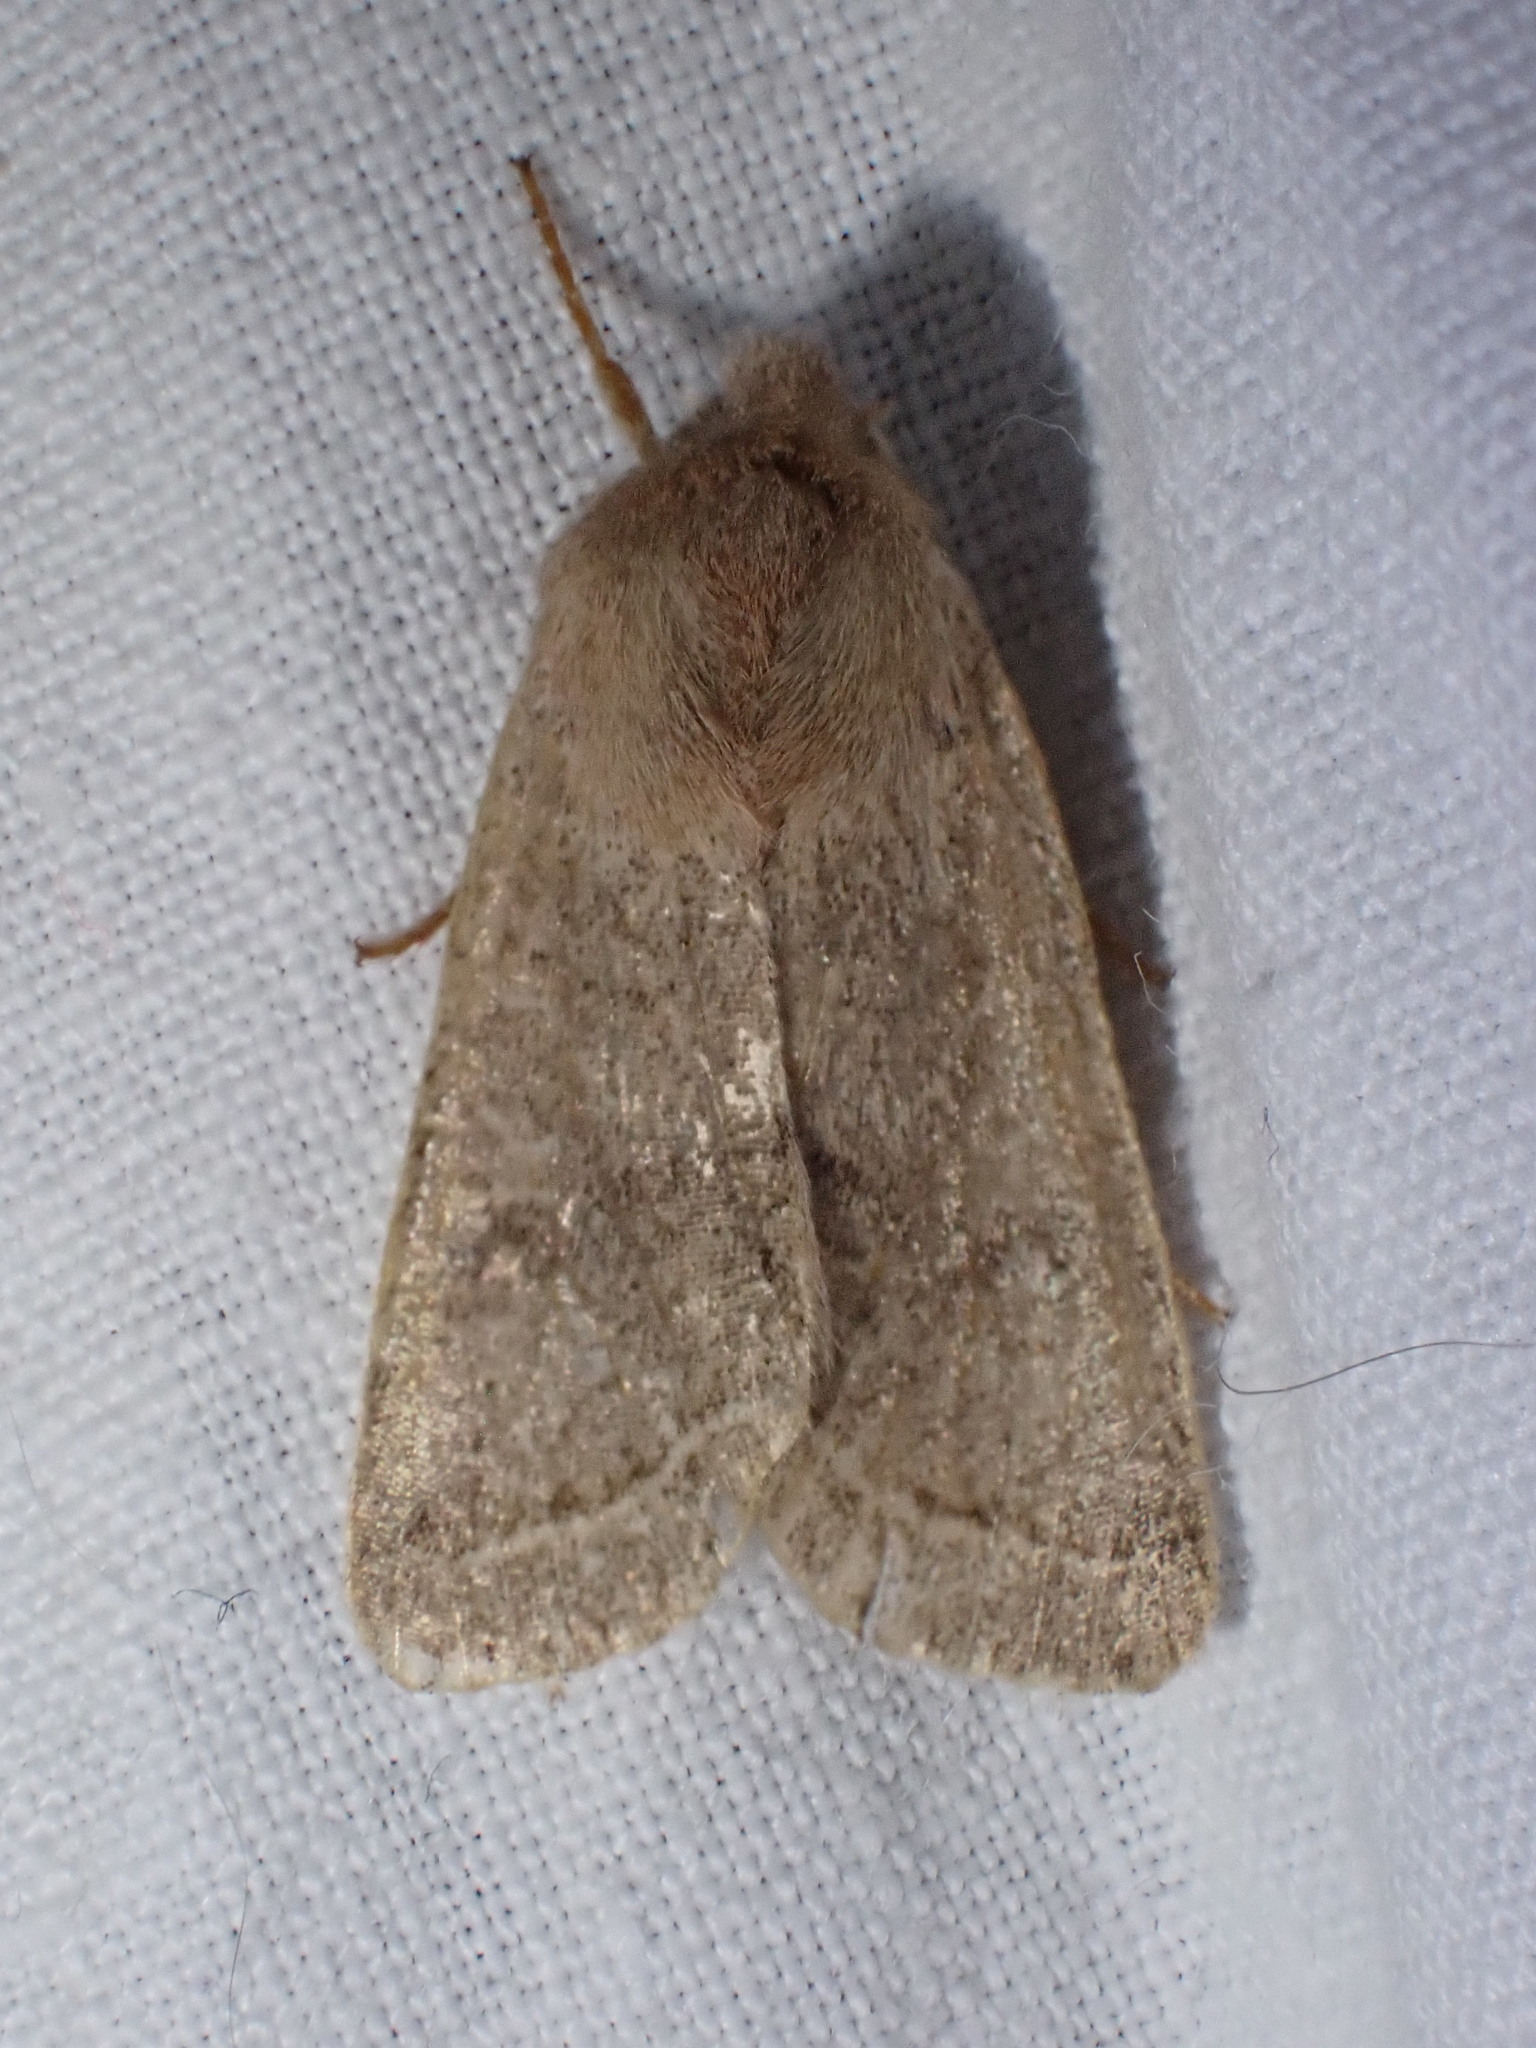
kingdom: Animalia
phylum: Arthropoda
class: Insecta
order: Lepidoptera
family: Noctuidae
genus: Orthosia
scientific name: Orthosia cerasi
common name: Common quaker
